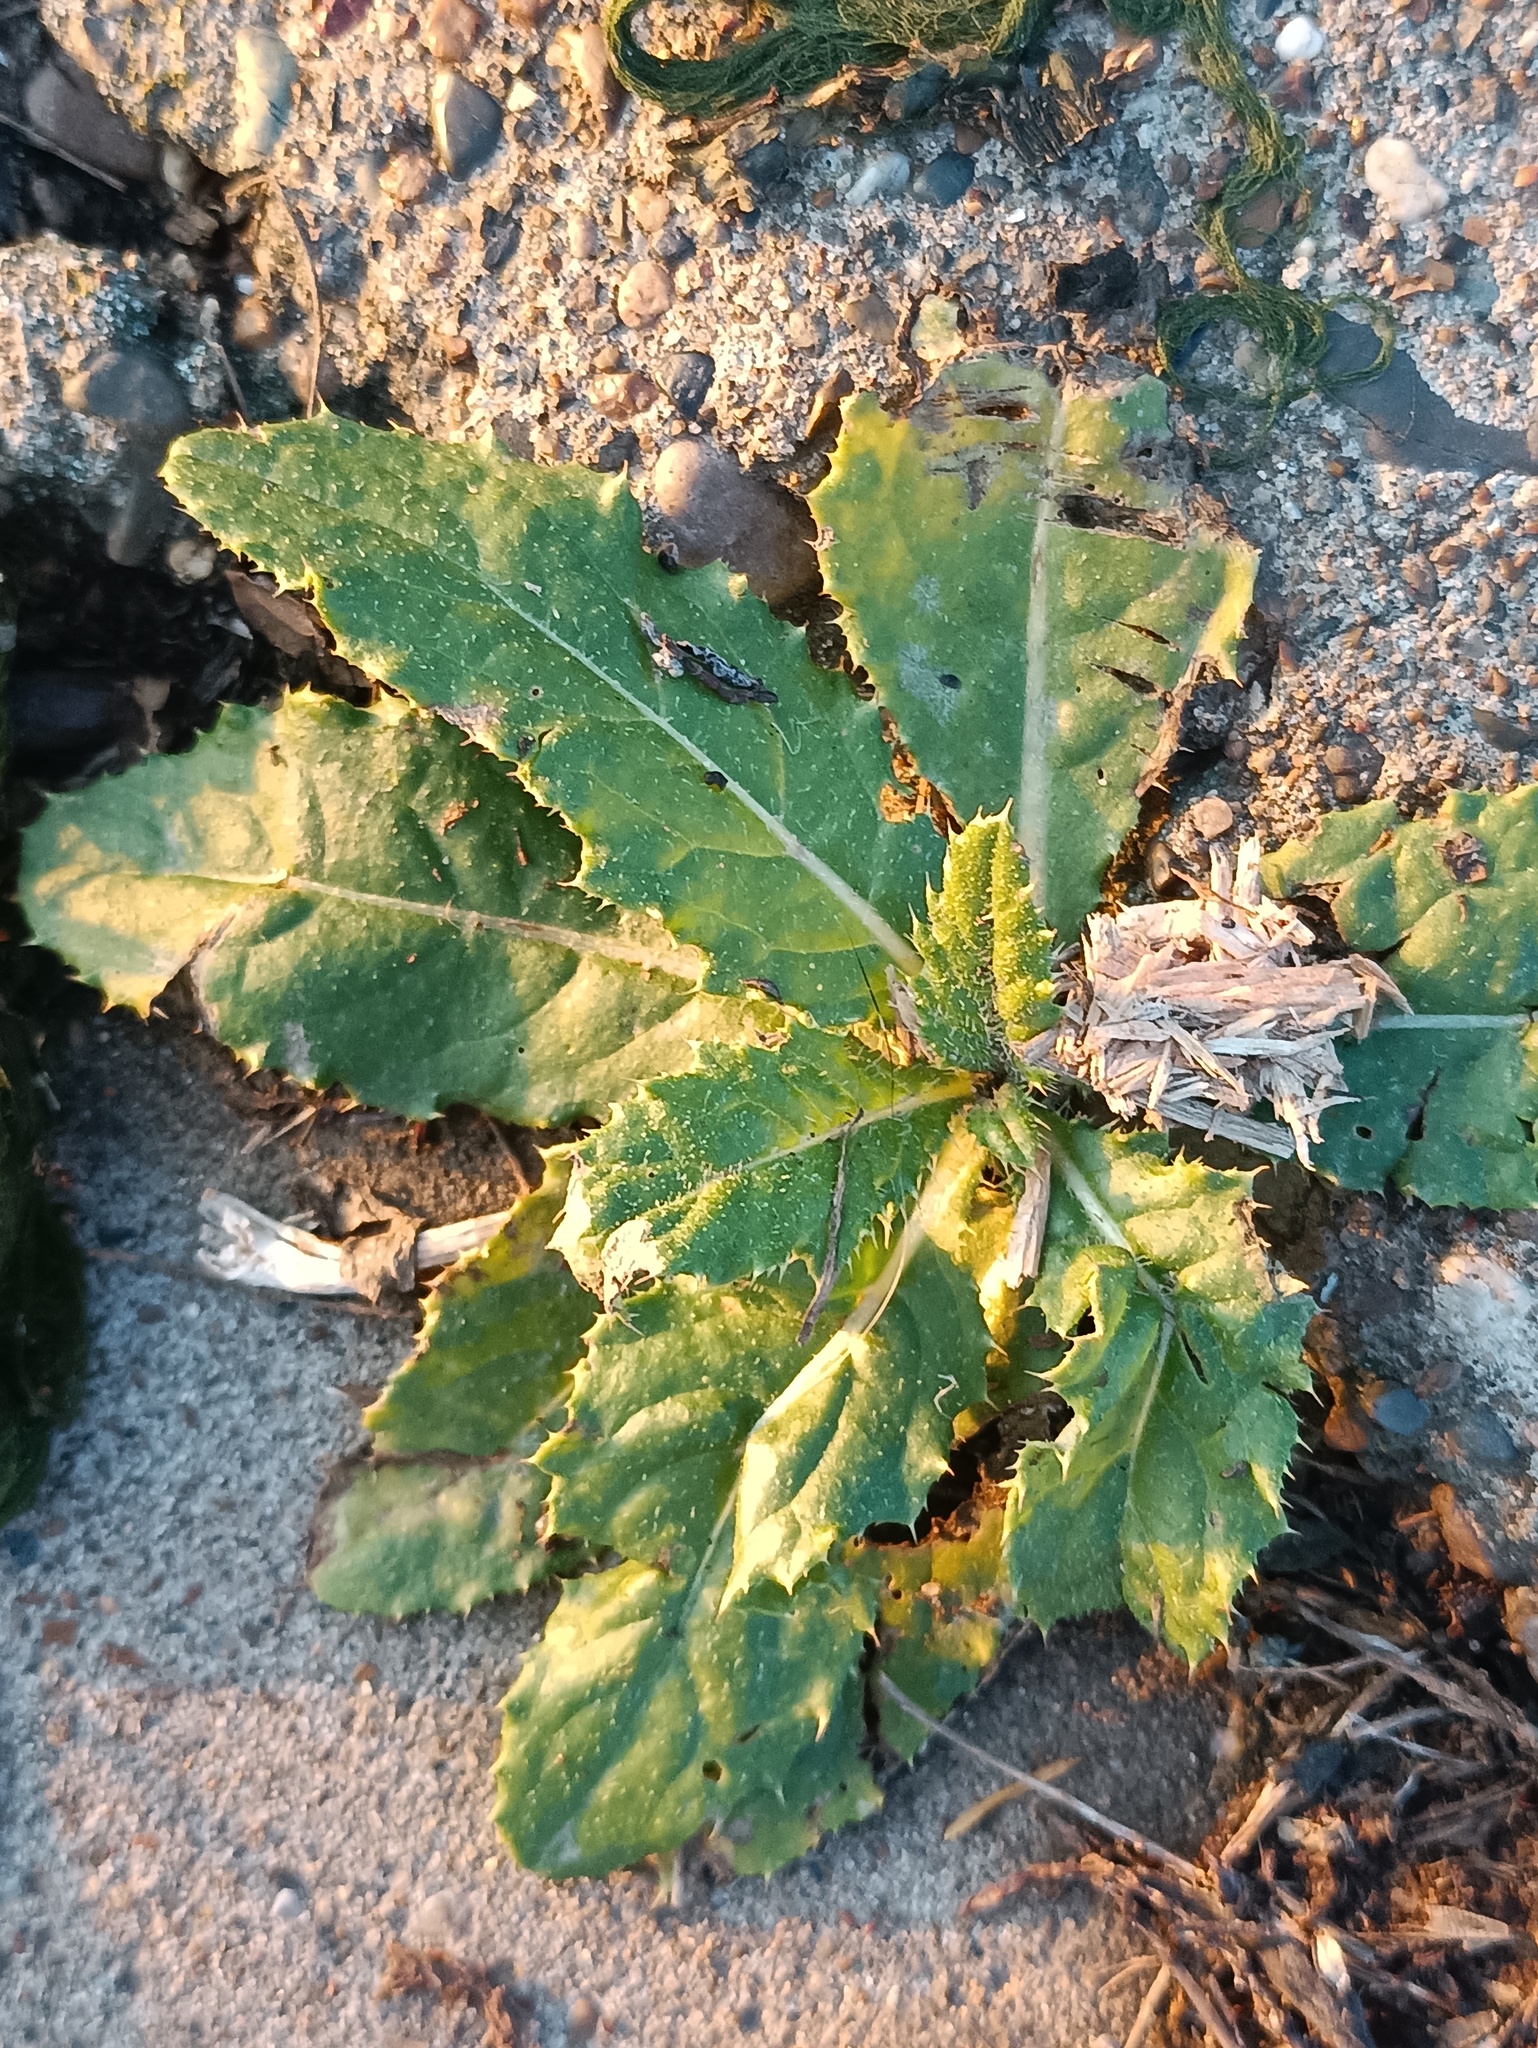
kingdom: Plantae
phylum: Tracheophyta
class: Magnoliopsida
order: Asterales
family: Asteraceae
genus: Cirsium
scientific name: Cirsium arvense
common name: Creeping thistle
